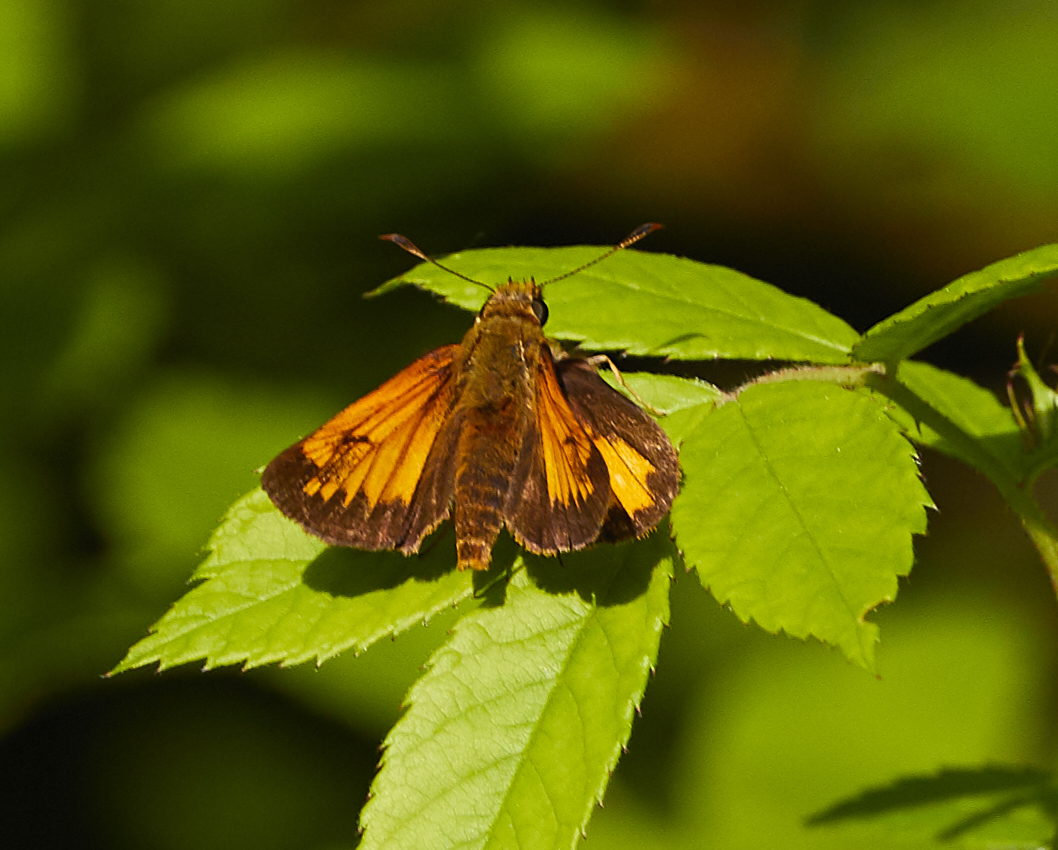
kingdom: Animalia
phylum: Arthropoda
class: Insecta
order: Lepidoptera
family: Hesperiidae
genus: Lon
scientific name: Lon hobomok
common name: Hobomok skipper
